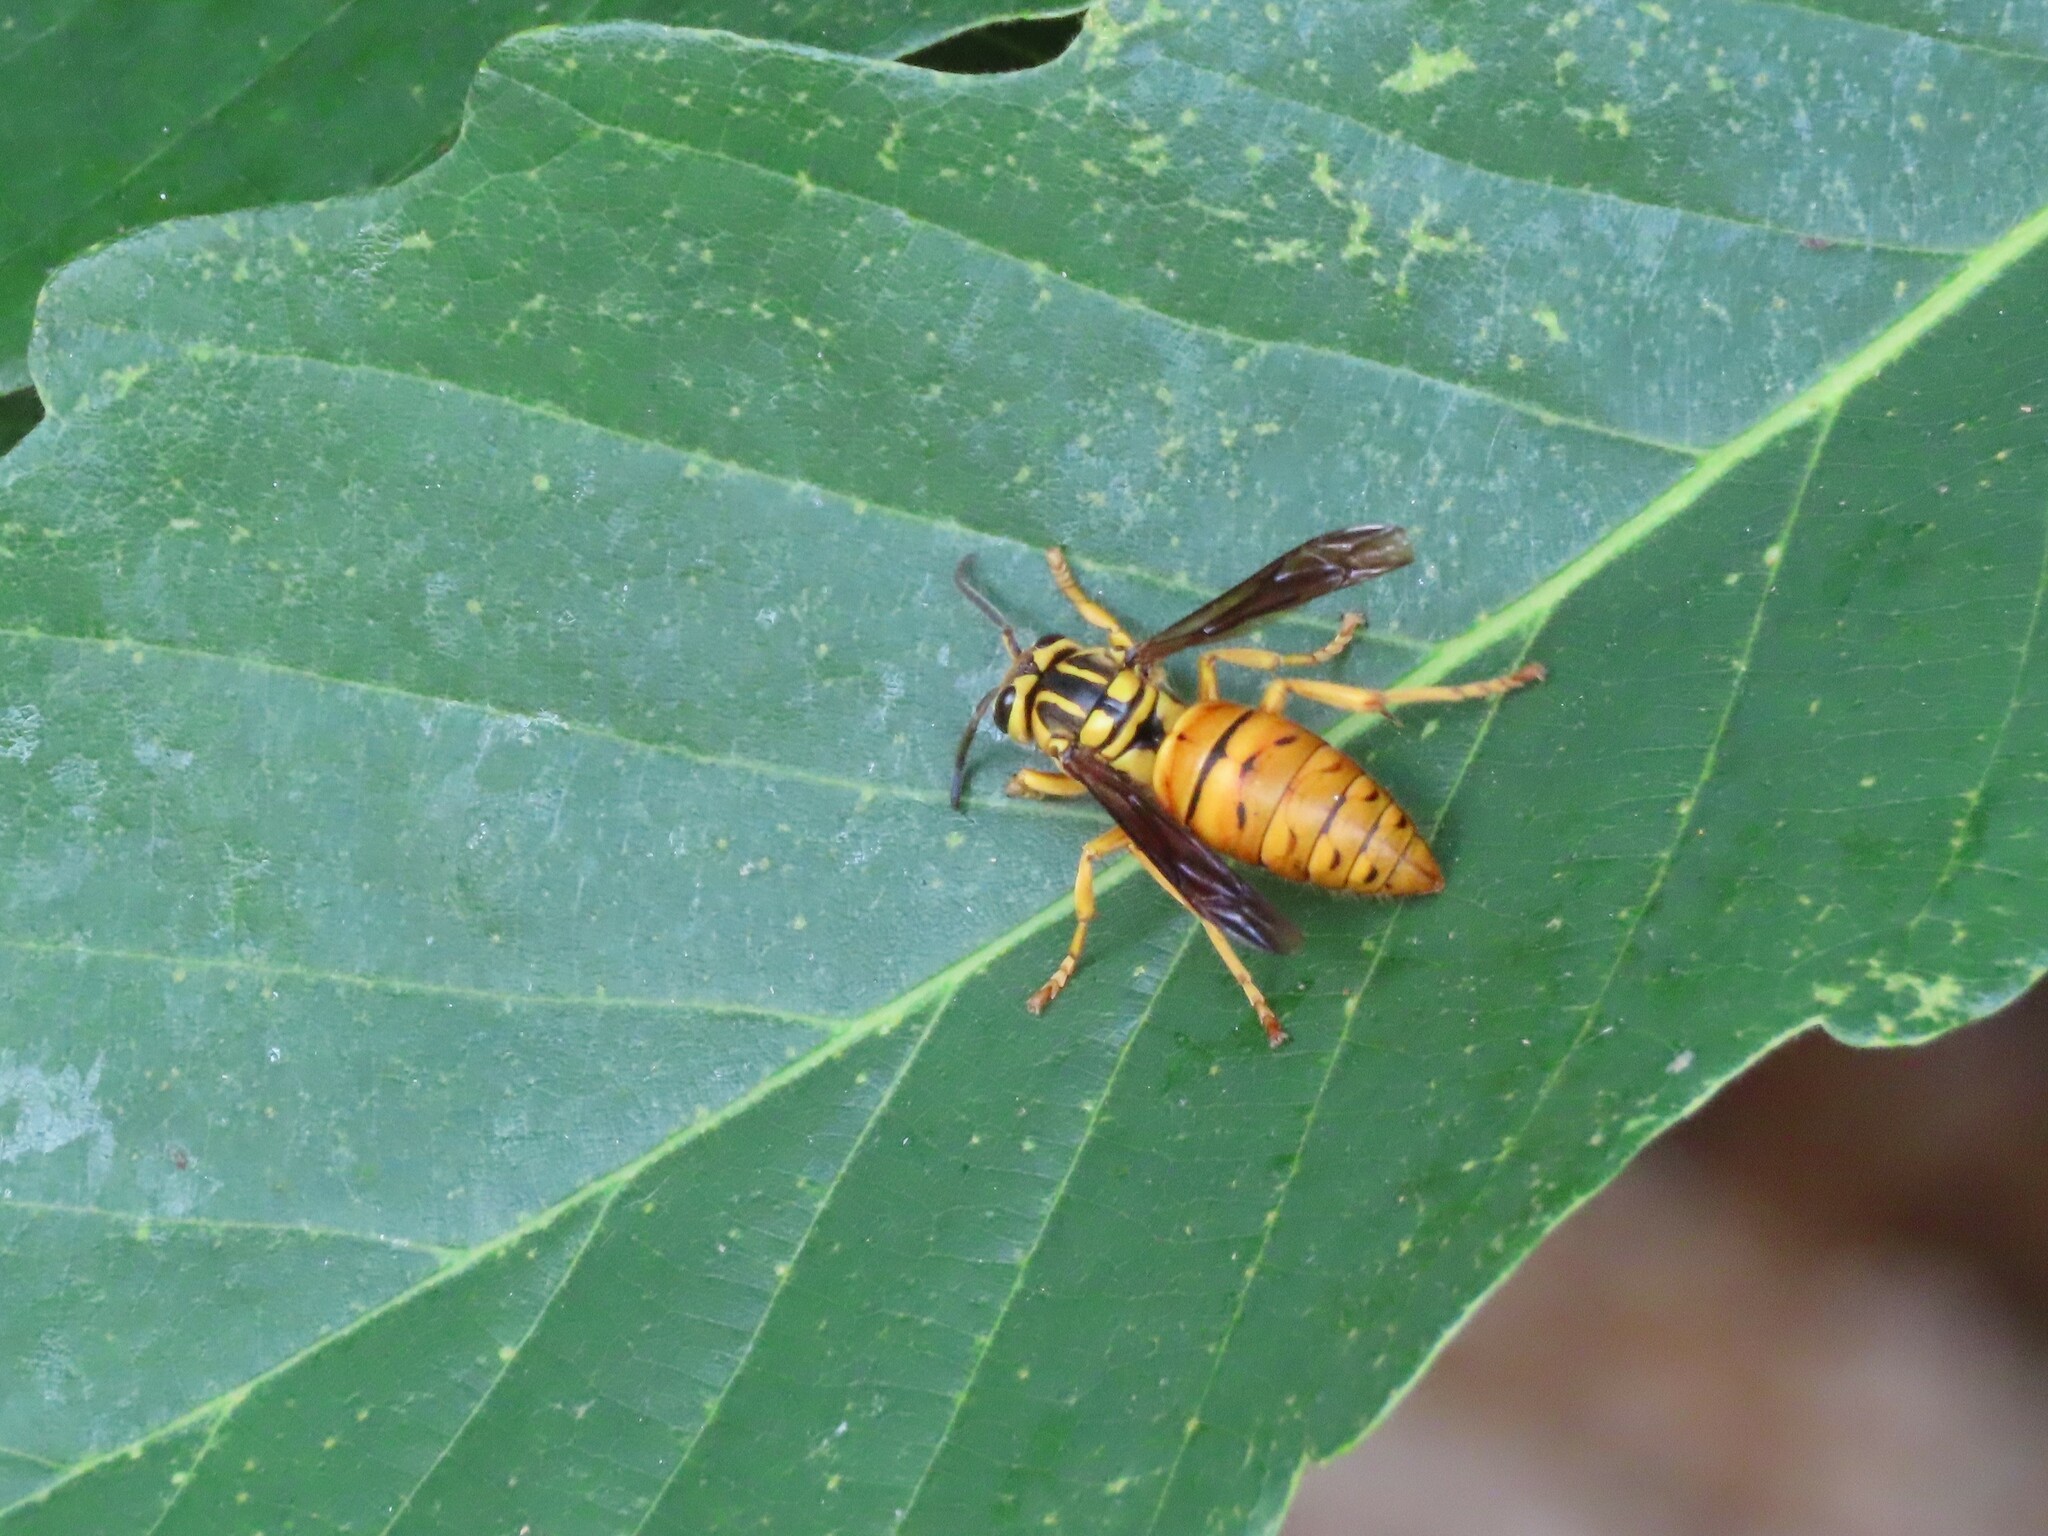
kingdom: Animalia
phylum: Arthropoda
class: Insecta
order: Hymenoptera
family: Vespidae
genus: Vespula
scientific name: Vespula squamosa
